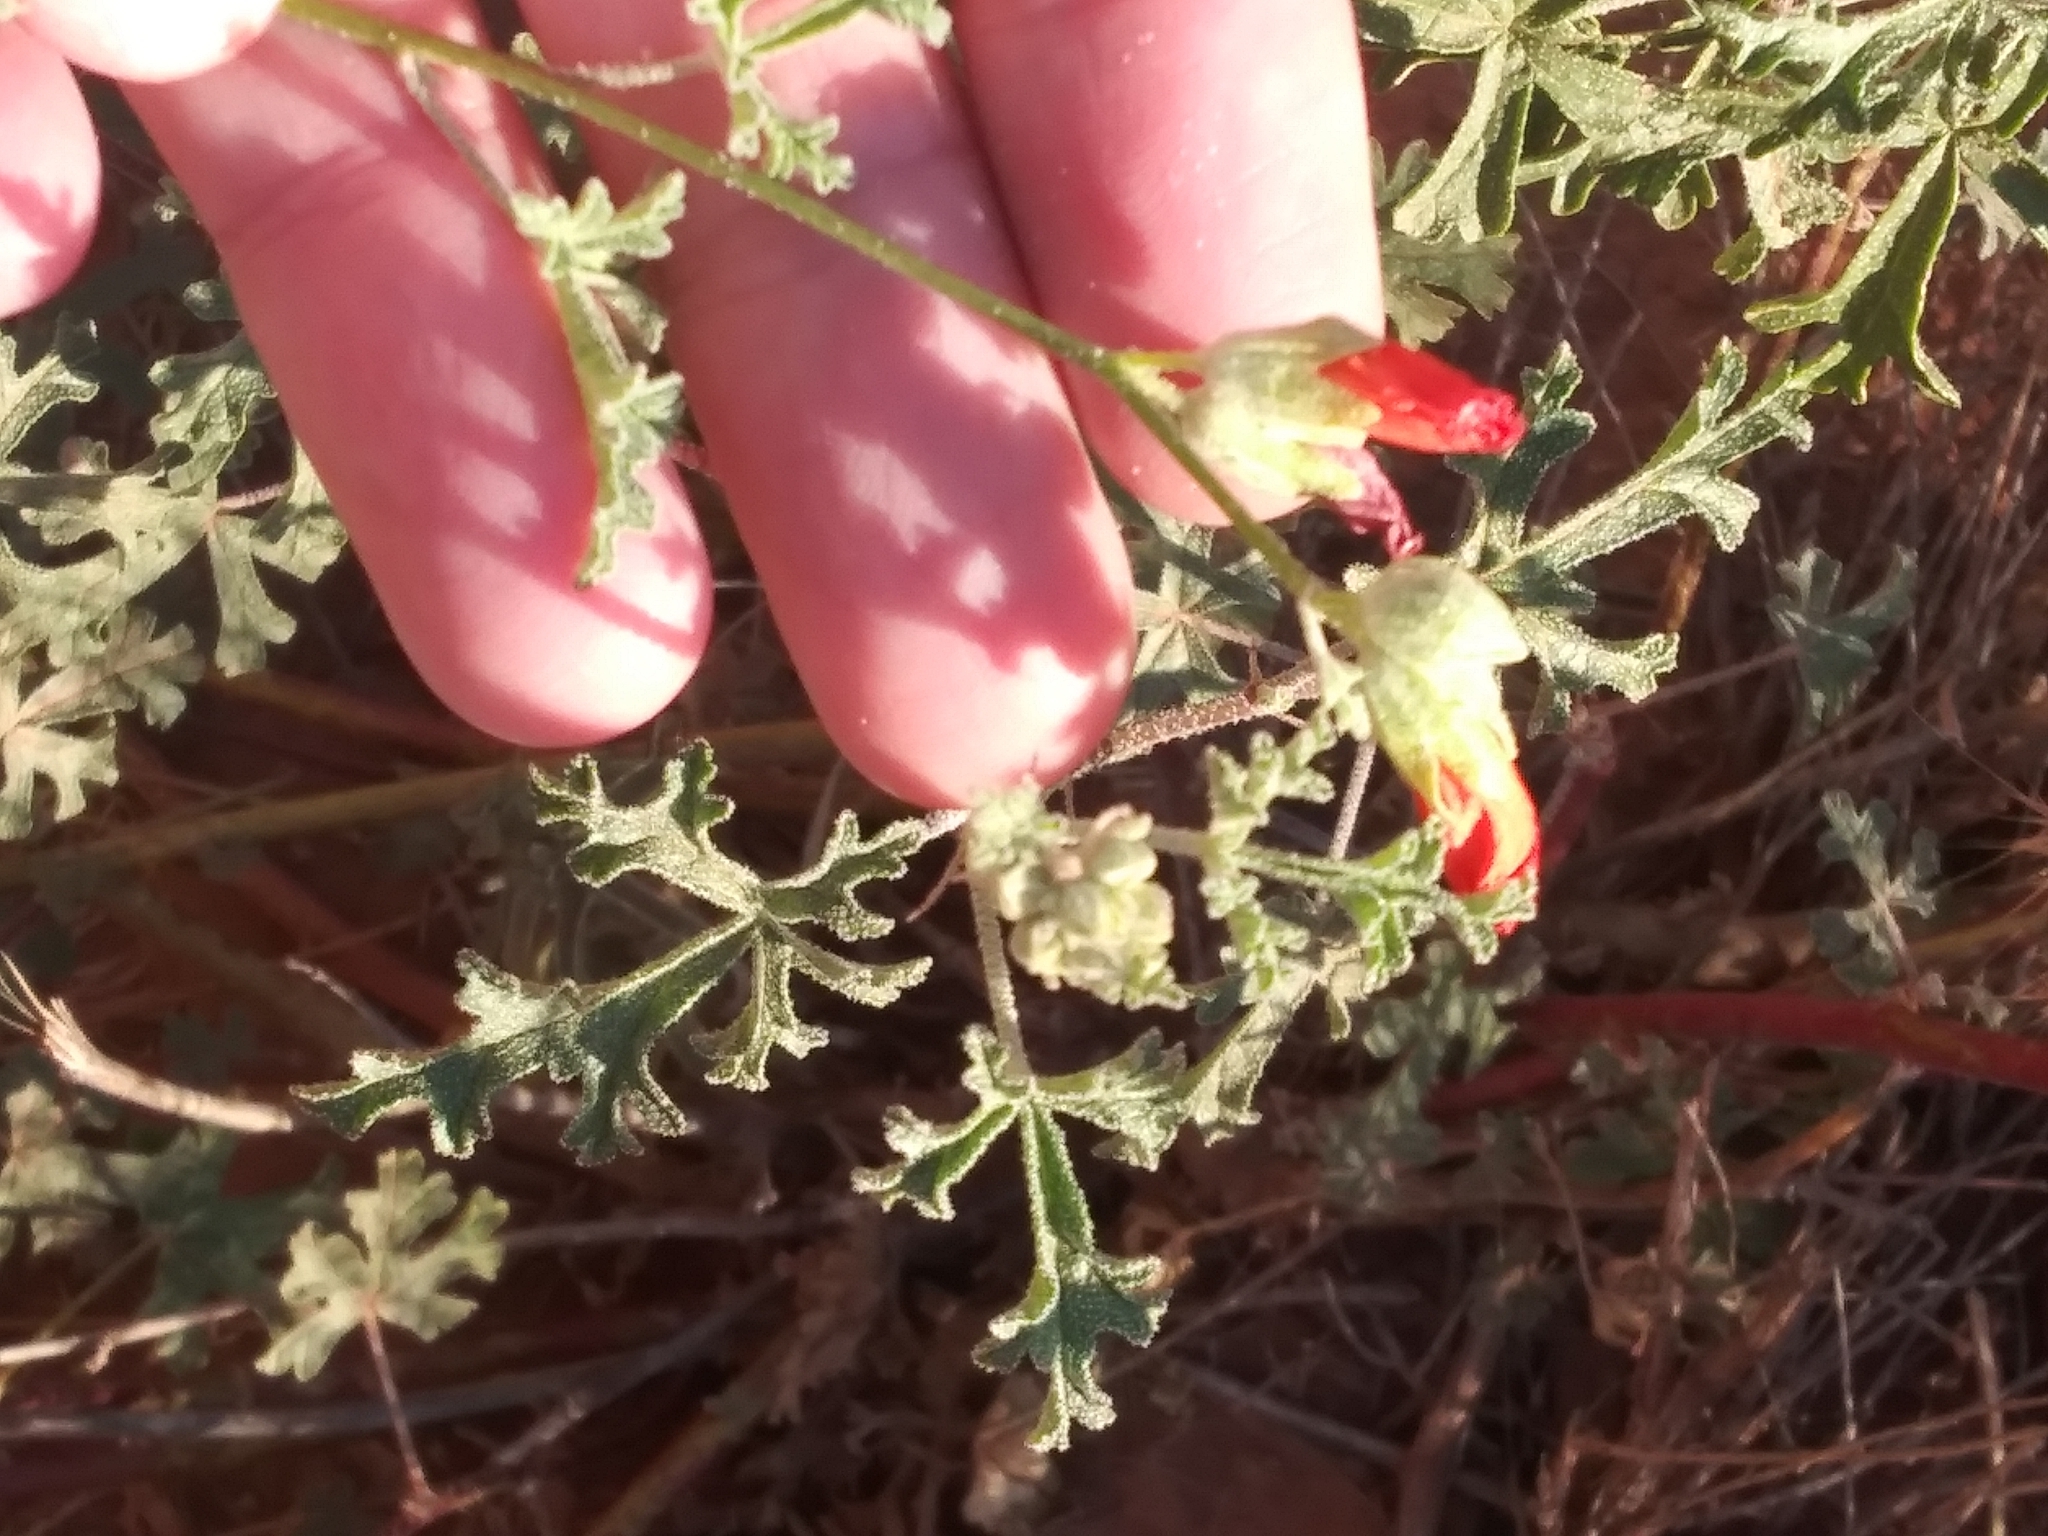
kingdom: Plantae
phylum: Tracheophyta
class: Magnoliopsida
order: Malvales
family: Malvaceae
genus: Sphaeralcea
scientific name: Sphaeralcea grossulariifolia
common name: Current-leaf globe-mallow
